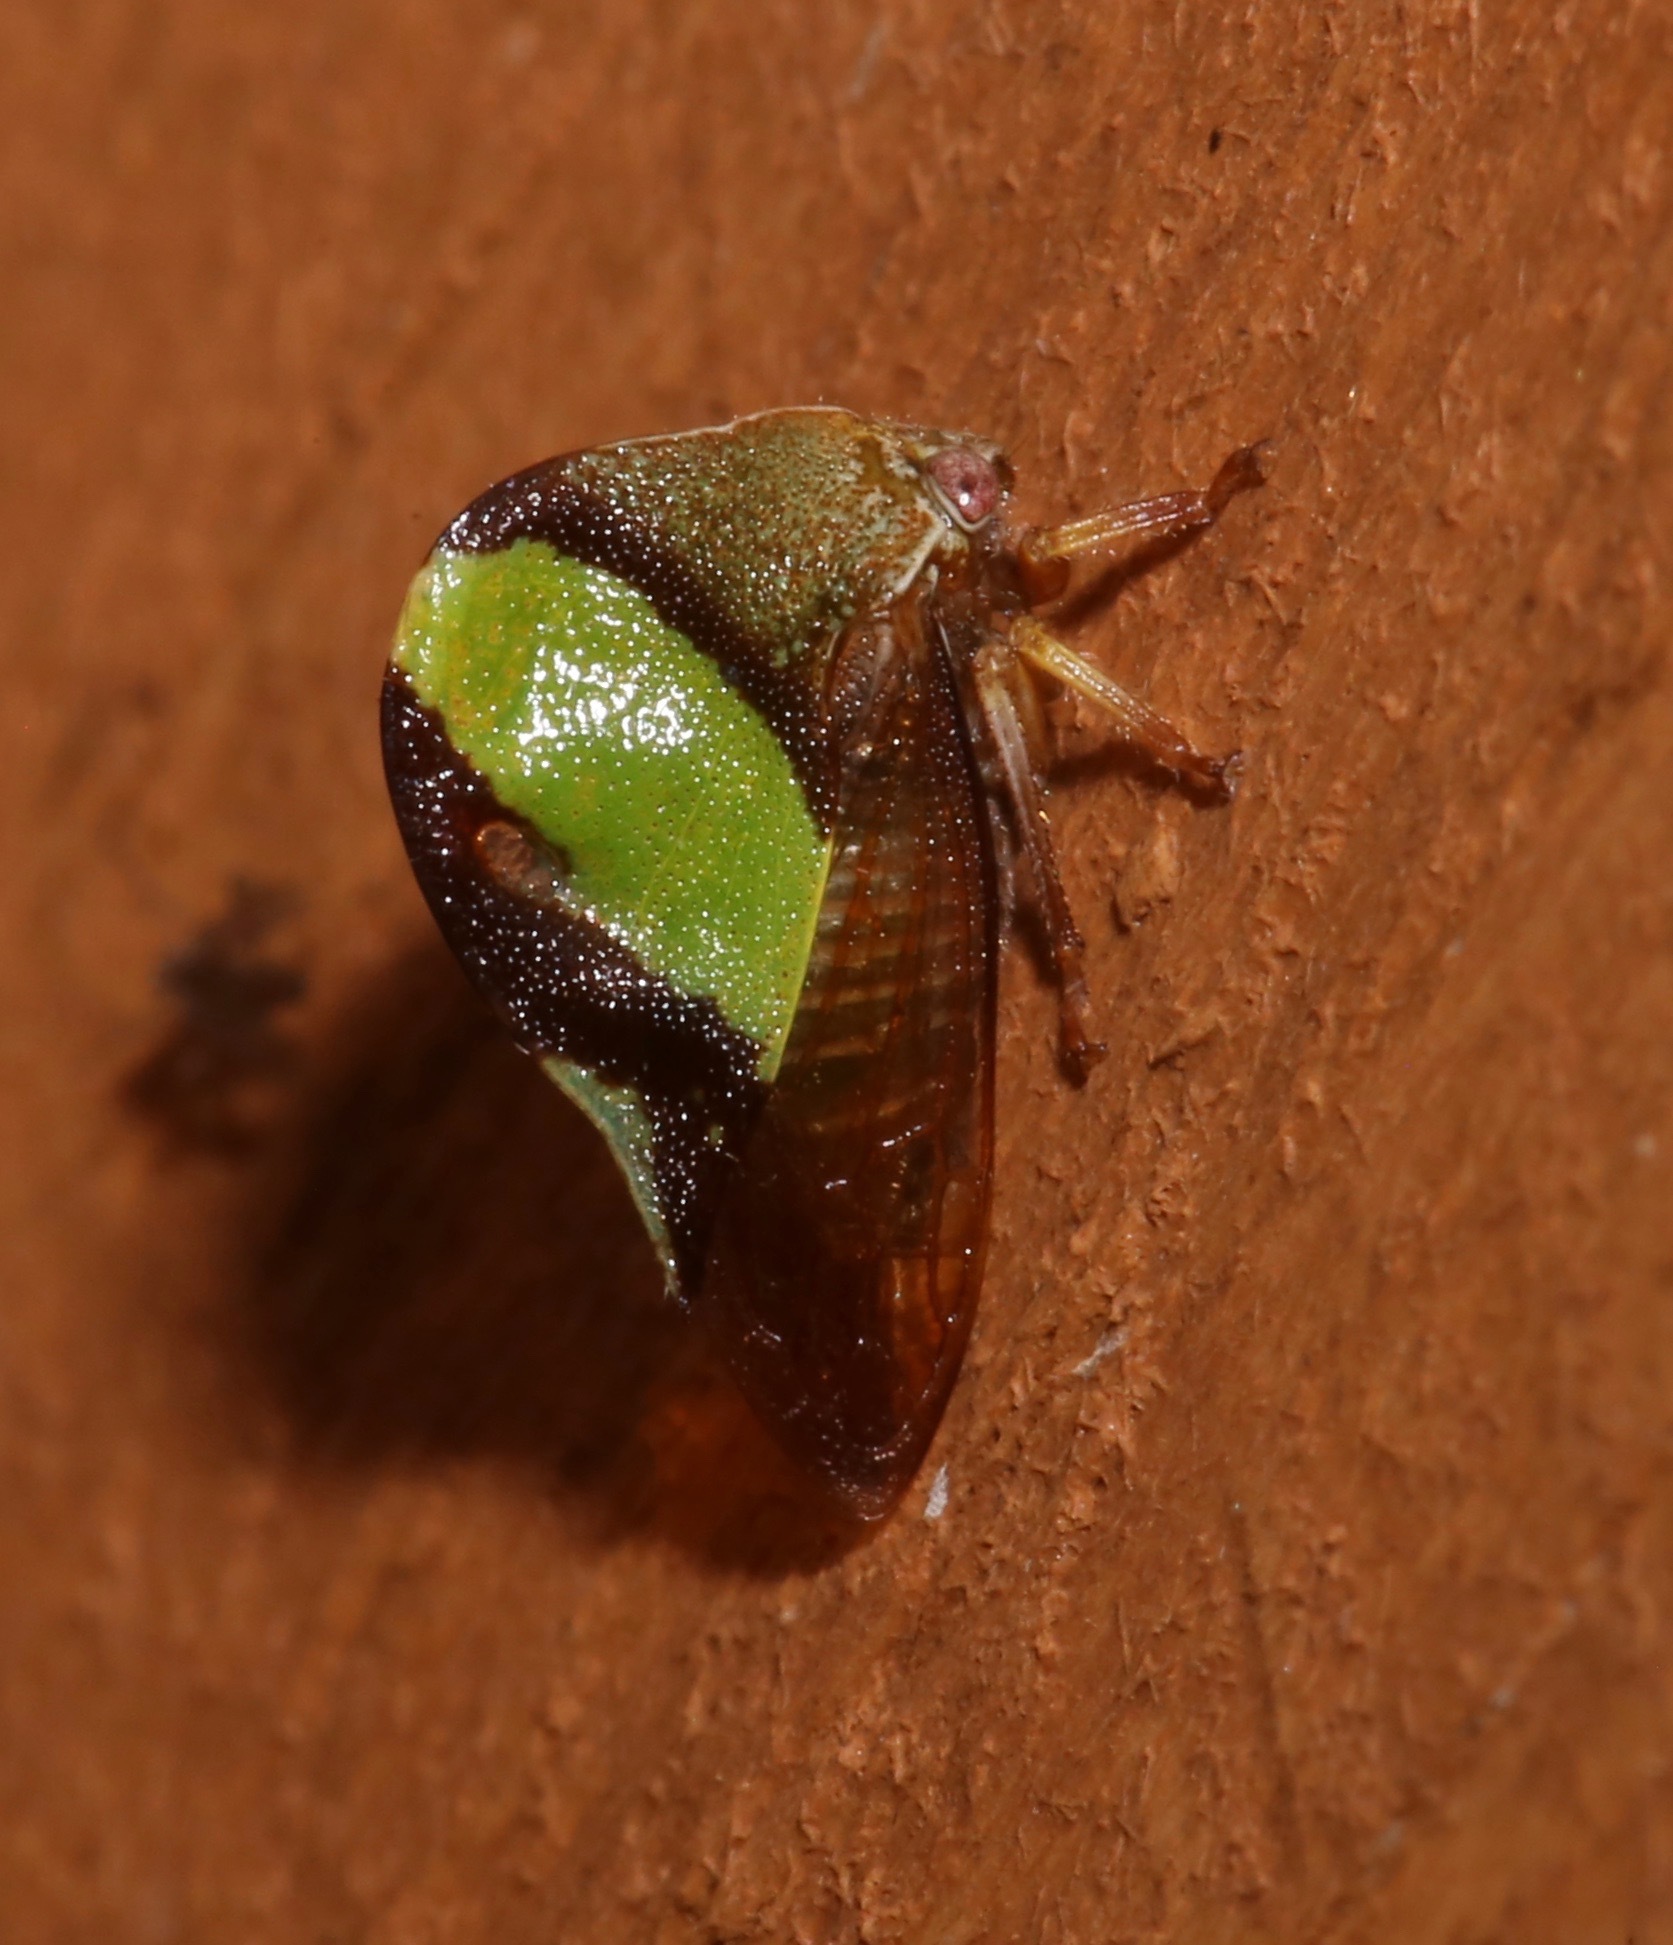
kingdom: Animalia
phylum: Arthropoda
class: Insecta
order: Hemiptera
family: Membracidae
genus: Smilia
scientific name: Smilia fasciata
